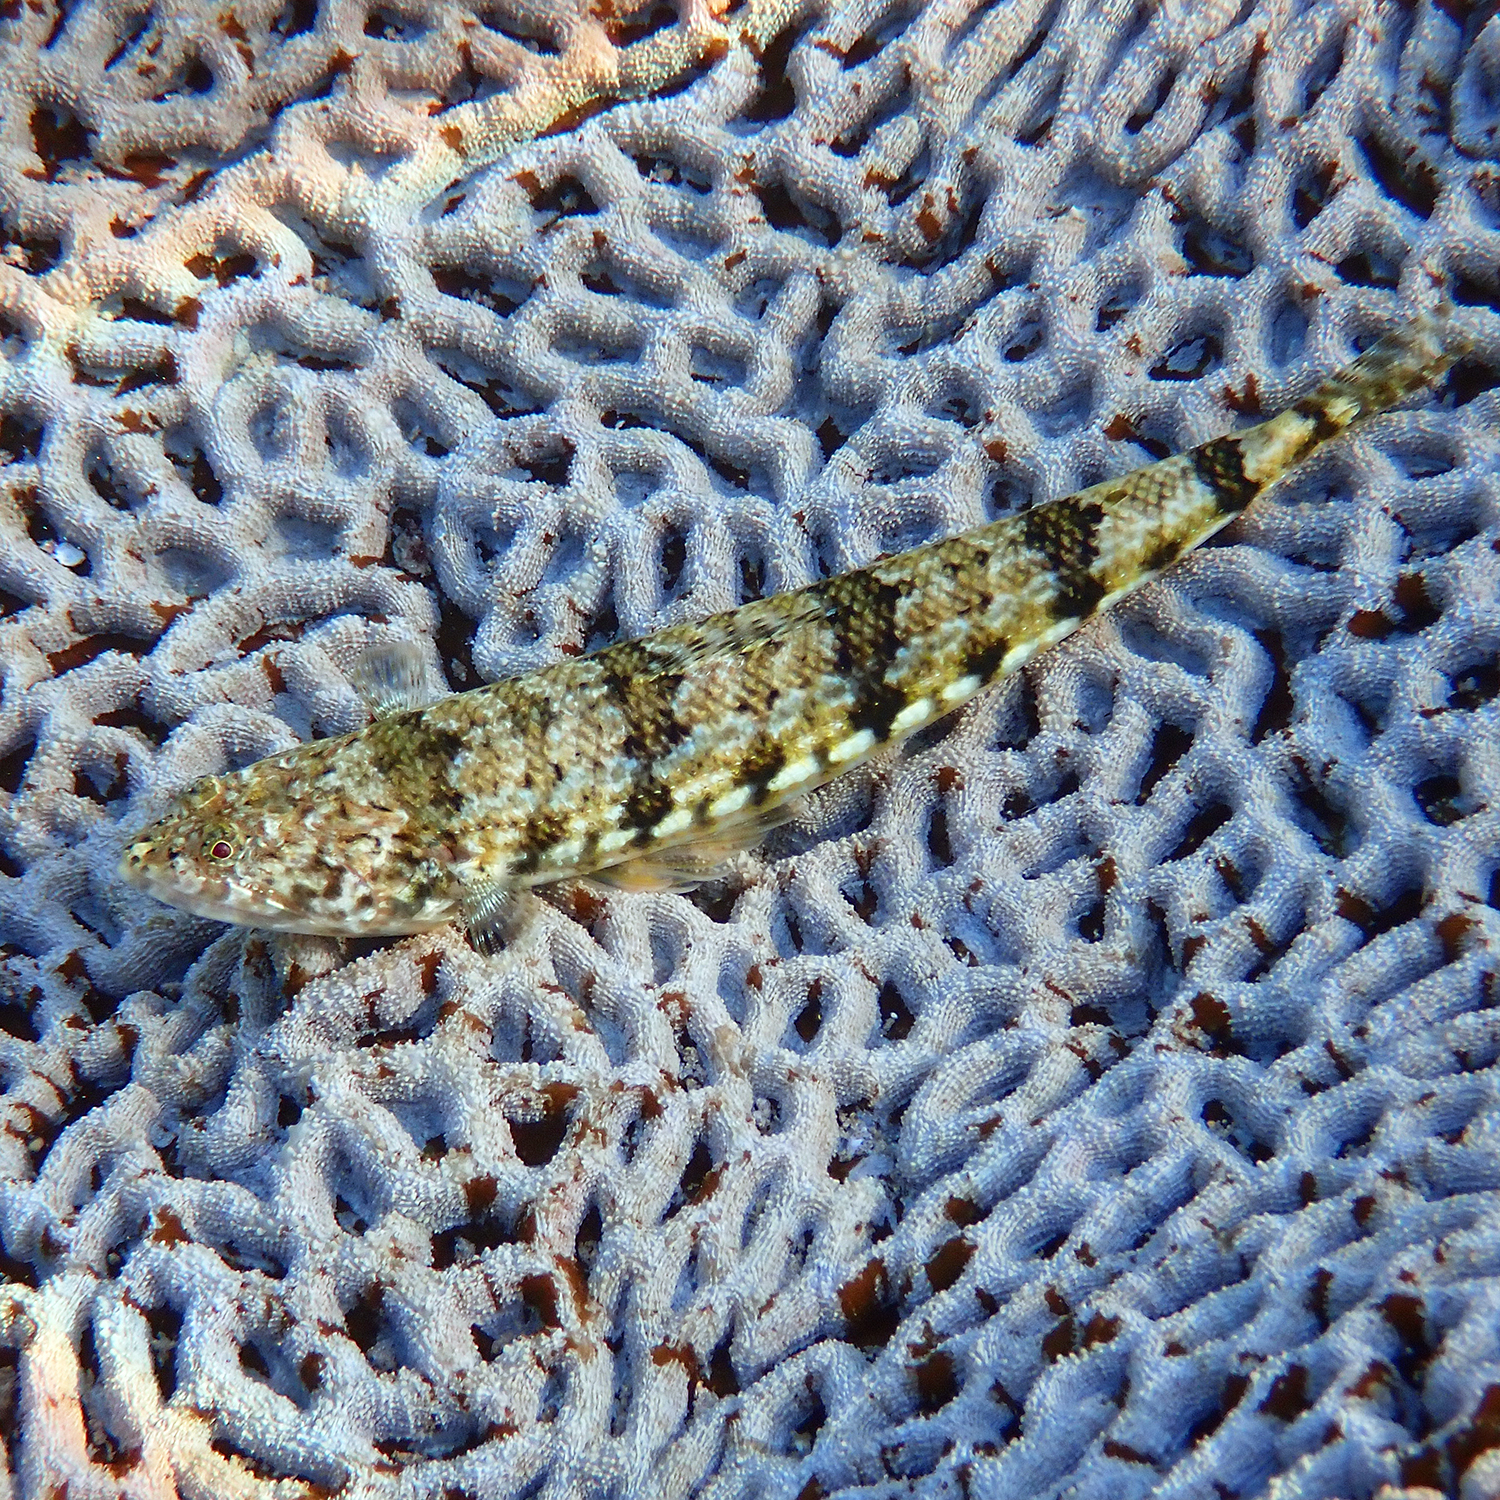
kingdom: Animalia
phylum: Chordata
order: Aulopiformes
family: Synodontidae
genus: Synodus
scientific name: Synodus dermatogenys
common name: Banded lizardfish
